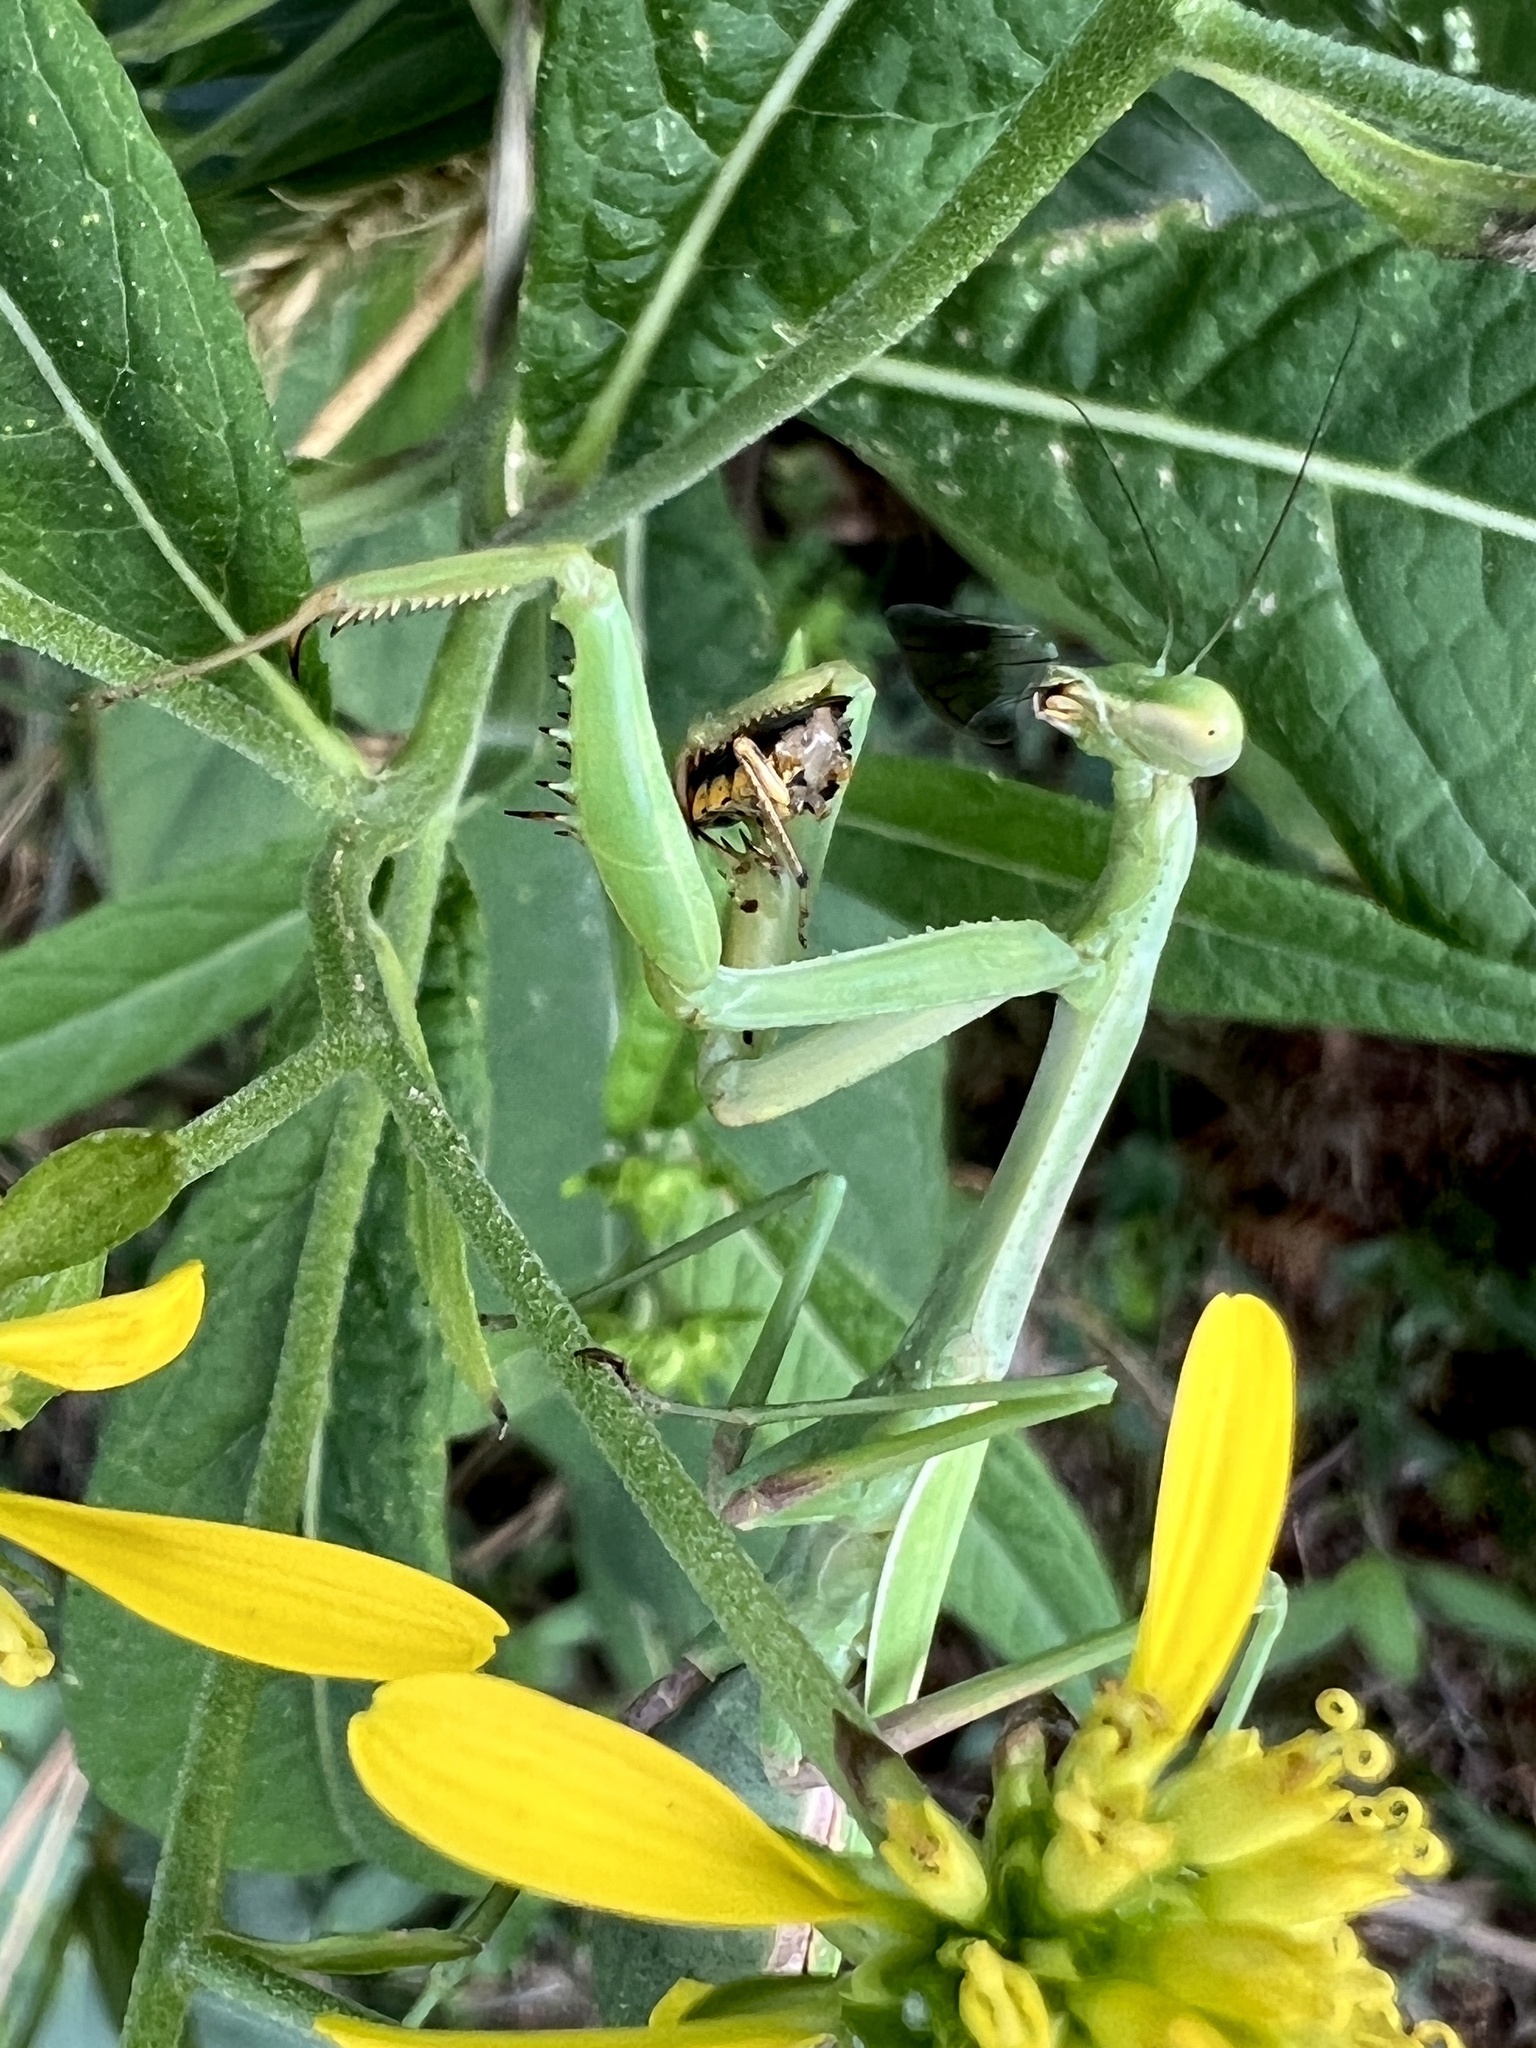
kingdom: Animalia
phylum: Arthropoda
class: Insecta
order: Mantodea
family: Mantidae
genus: Stagmomantis
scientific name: Stagmomantis carolina
